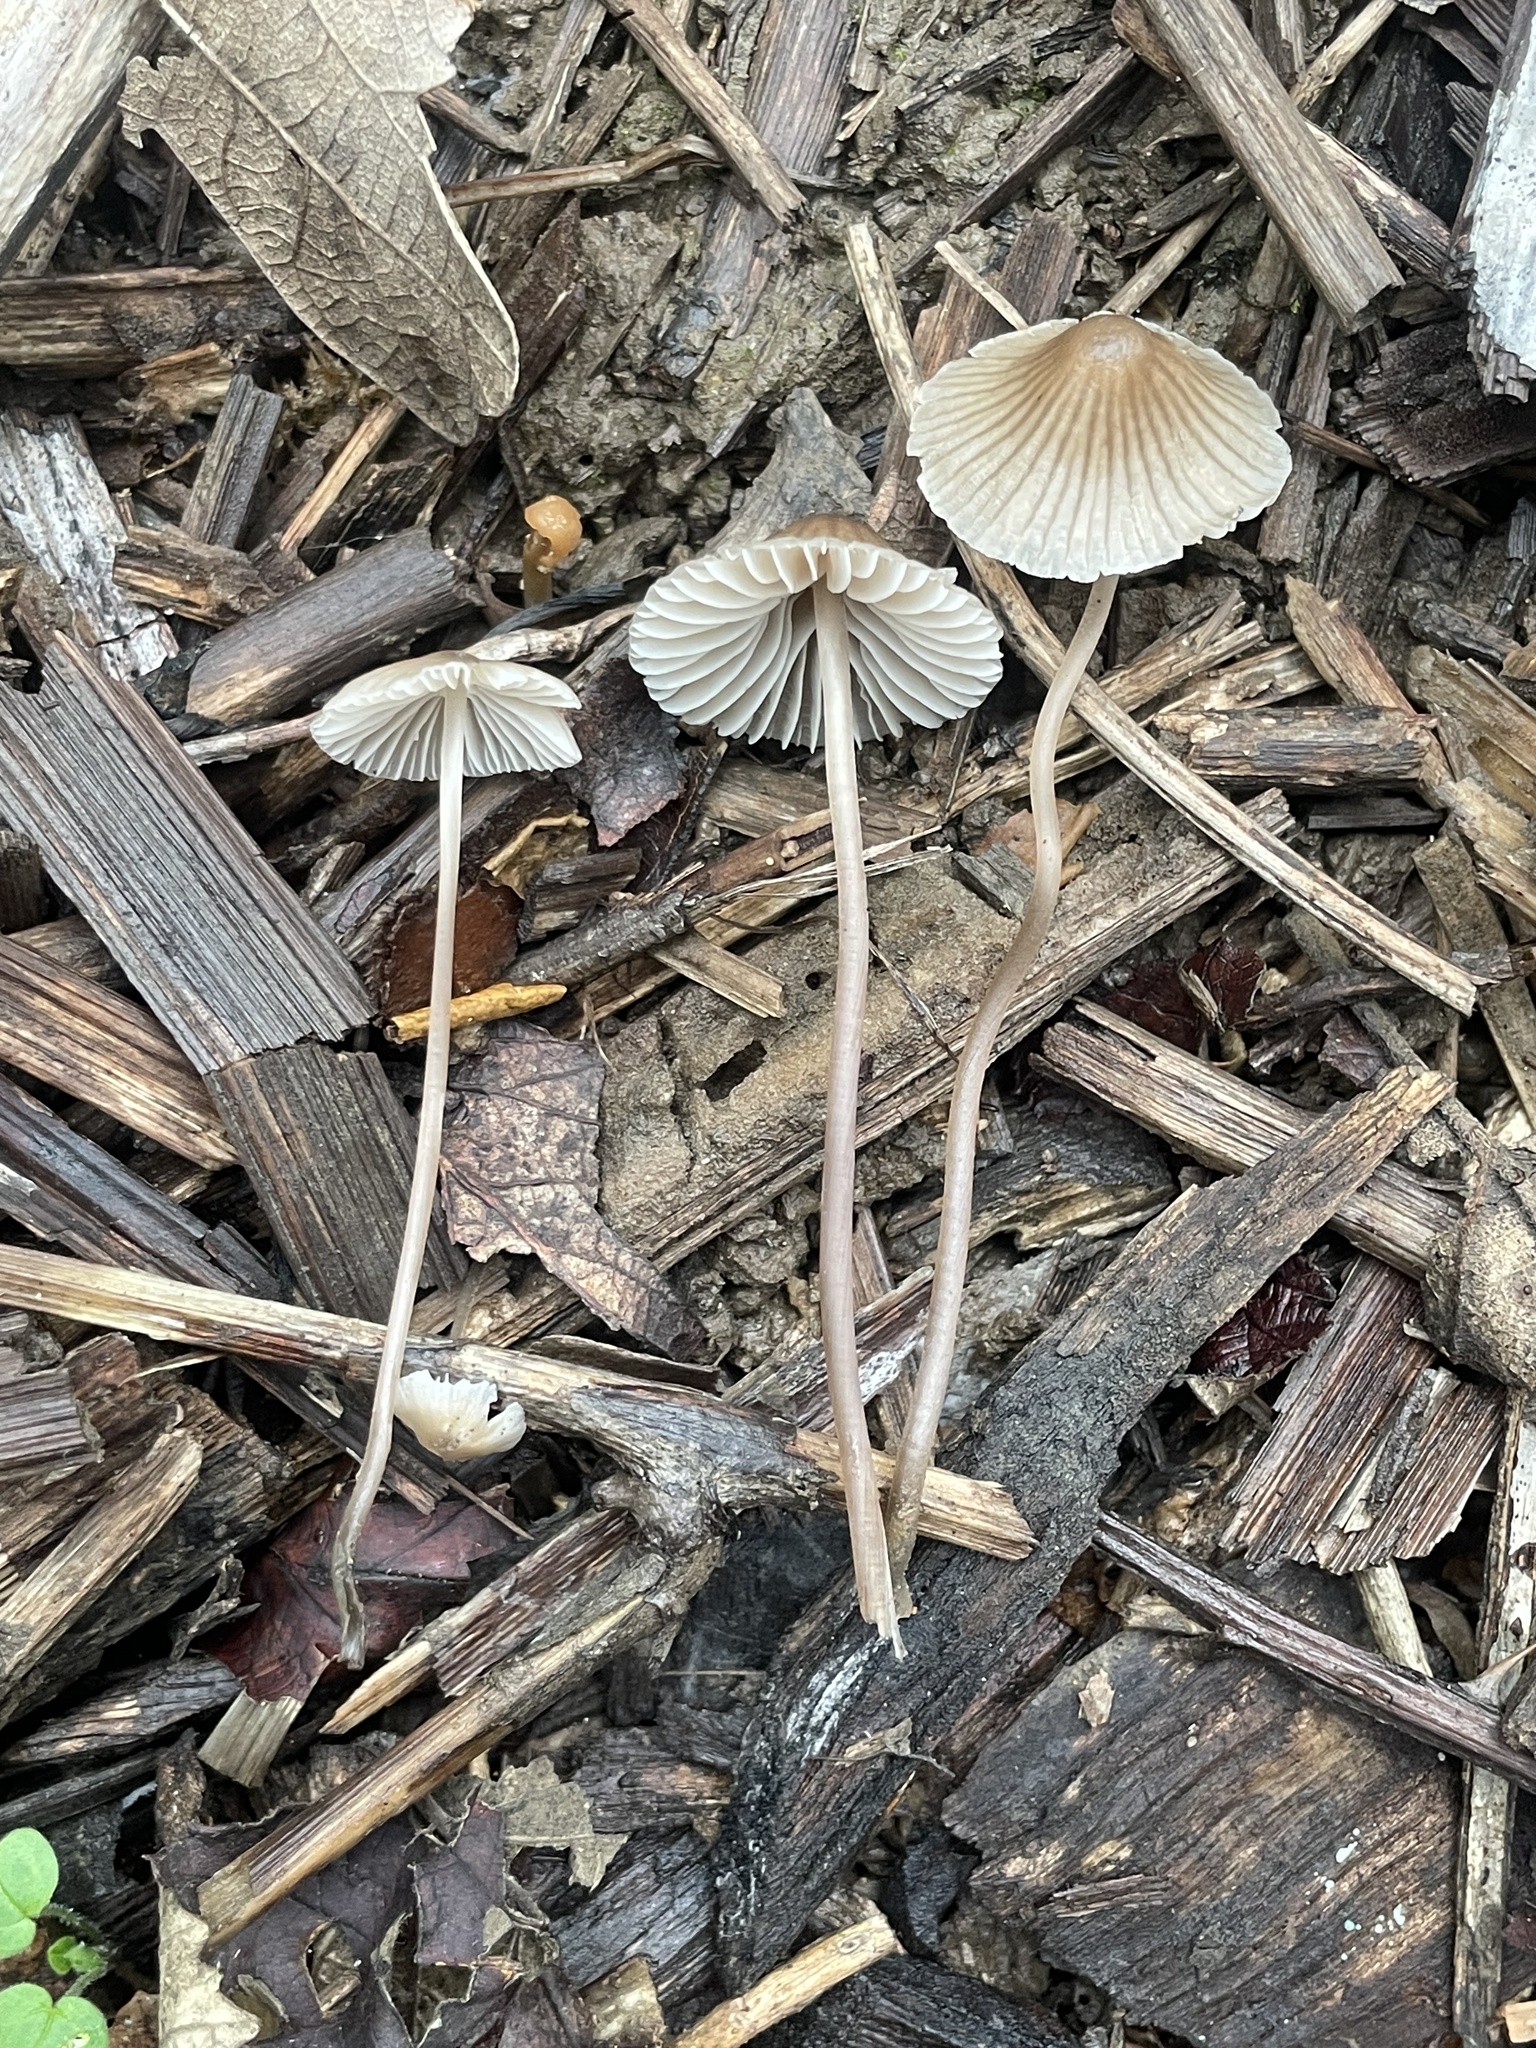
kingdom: Fungi
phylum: Basidiomycota
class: Agaricomycetes
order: Agaricales
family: Mycenaceae
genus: Mycena
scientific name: Mycena leptocephala
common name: Nitrous bonnet
